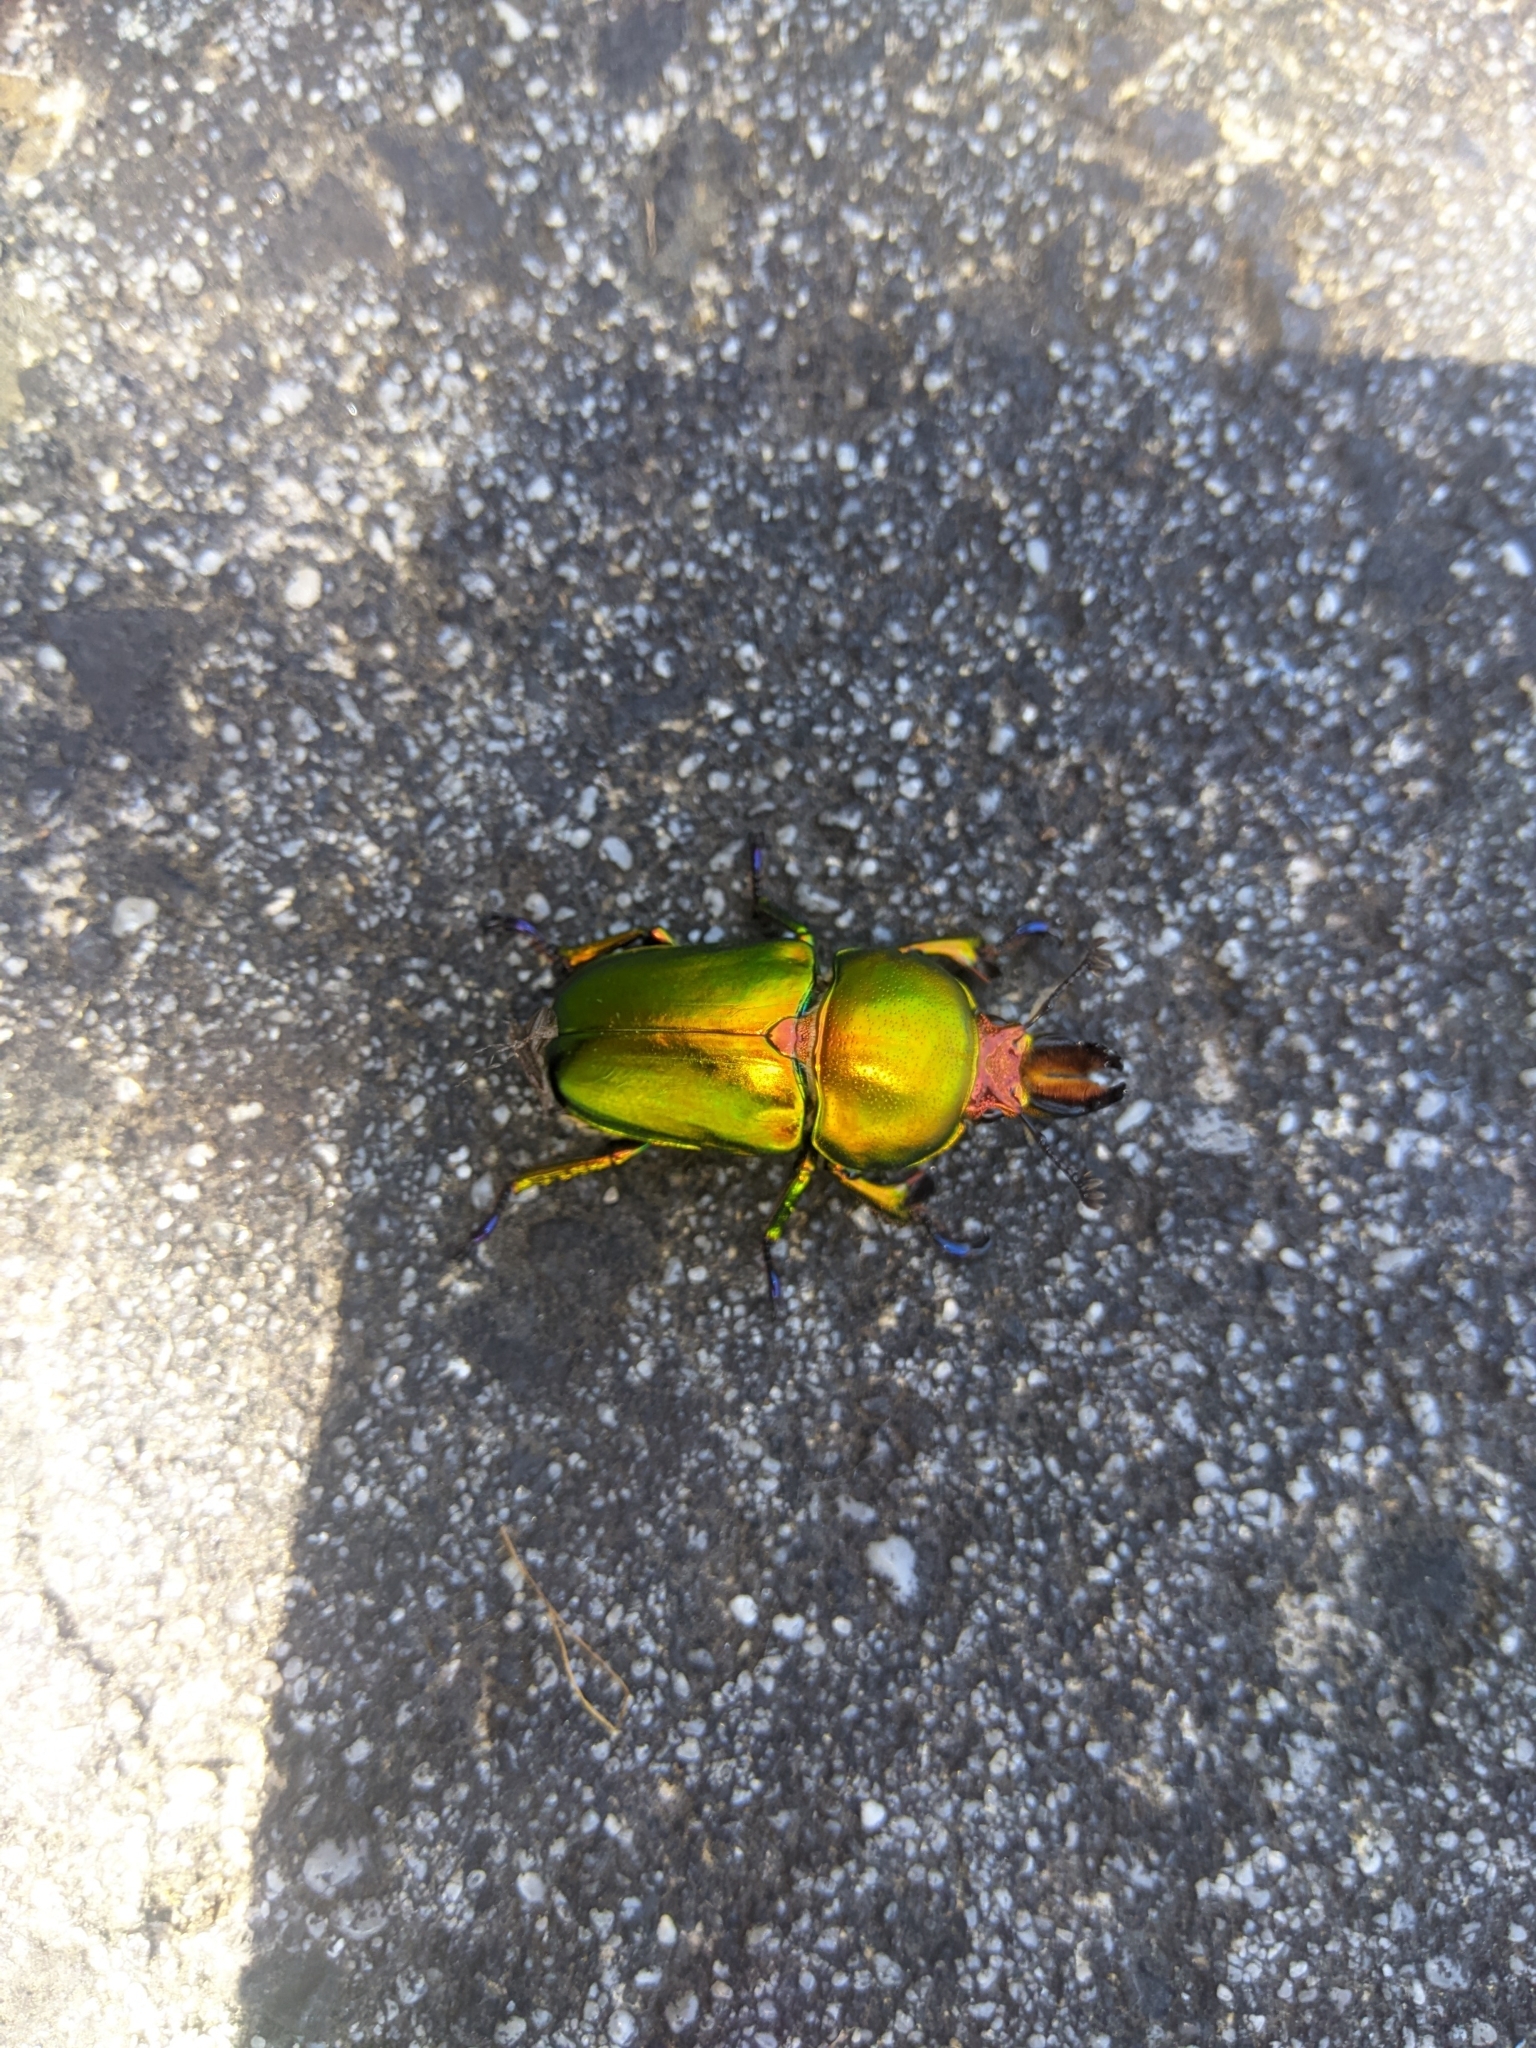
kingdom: Animalia
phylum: Arthropoda
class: Insecta
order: Coleoptera
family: Lucanidae
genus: Lamprima
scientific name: Lamprima aurata
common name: Golden stag beetle
